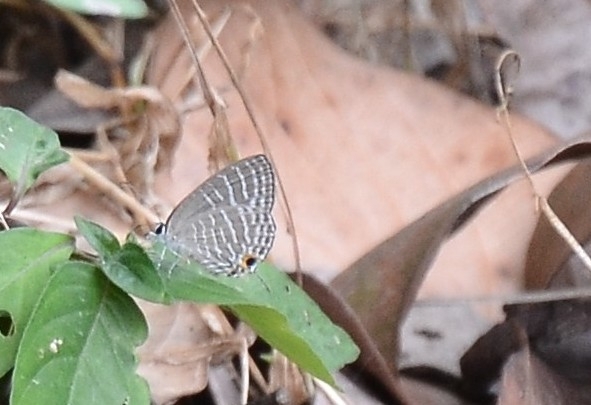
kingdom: Animalia
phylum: Arthropoda
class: Insecta
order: Lepidoptera
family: Lycaenidae
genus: Jamides
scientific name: Jamides celeno
